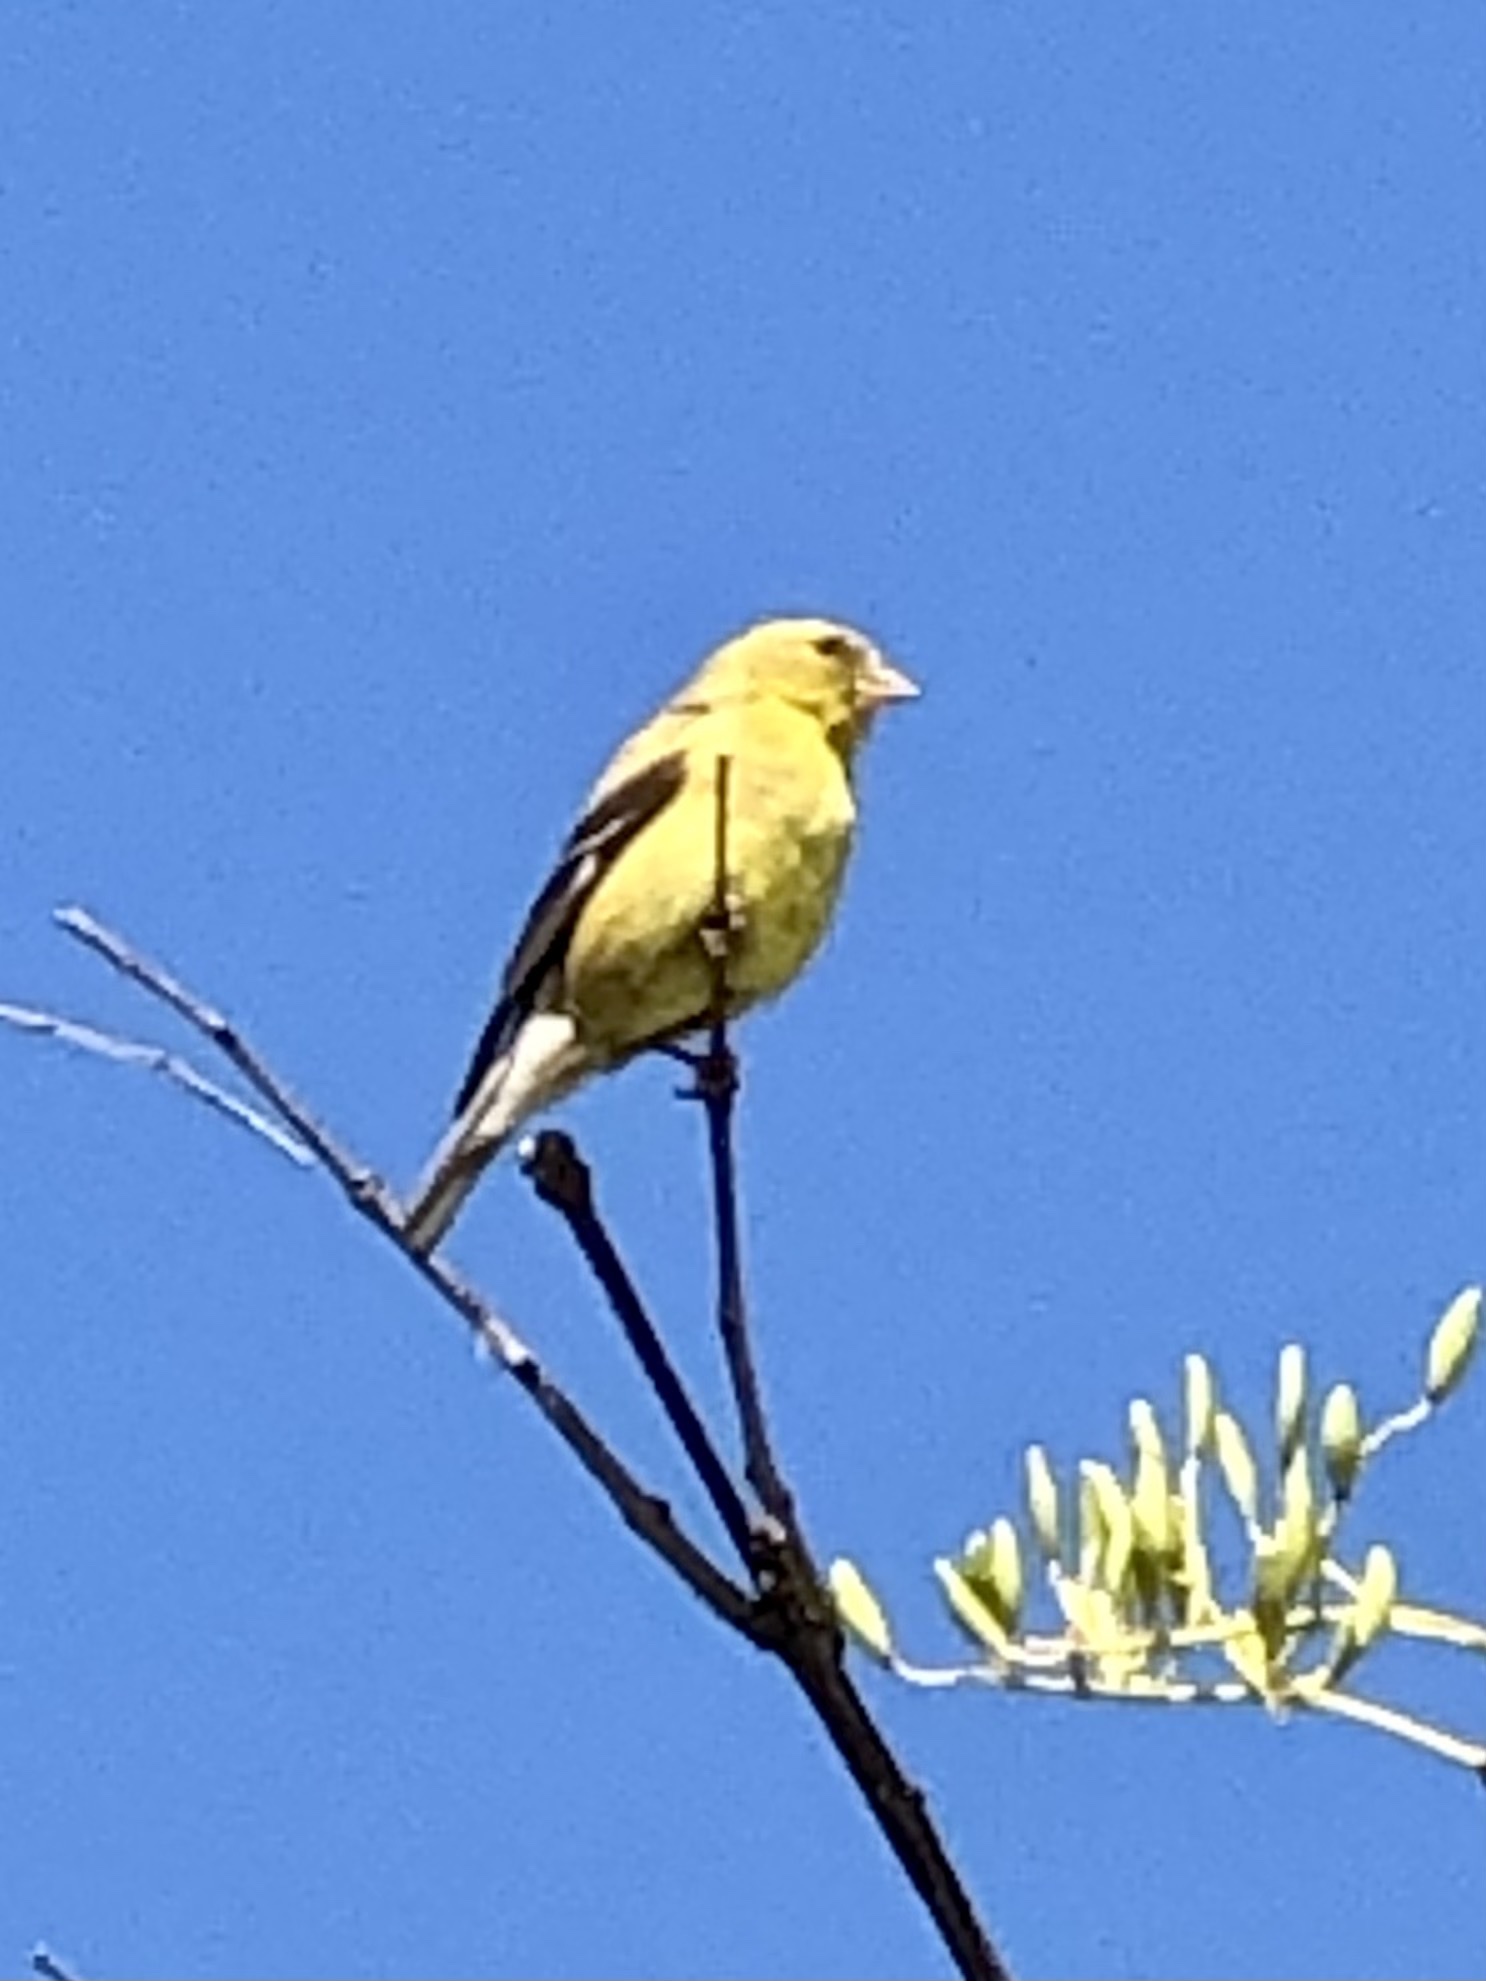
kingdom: Animalia
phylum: Chordata
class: Aves
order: Passeriformes
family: Fringillidae
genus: Spinus
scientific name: Spinus tristis
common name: American goldfinch
